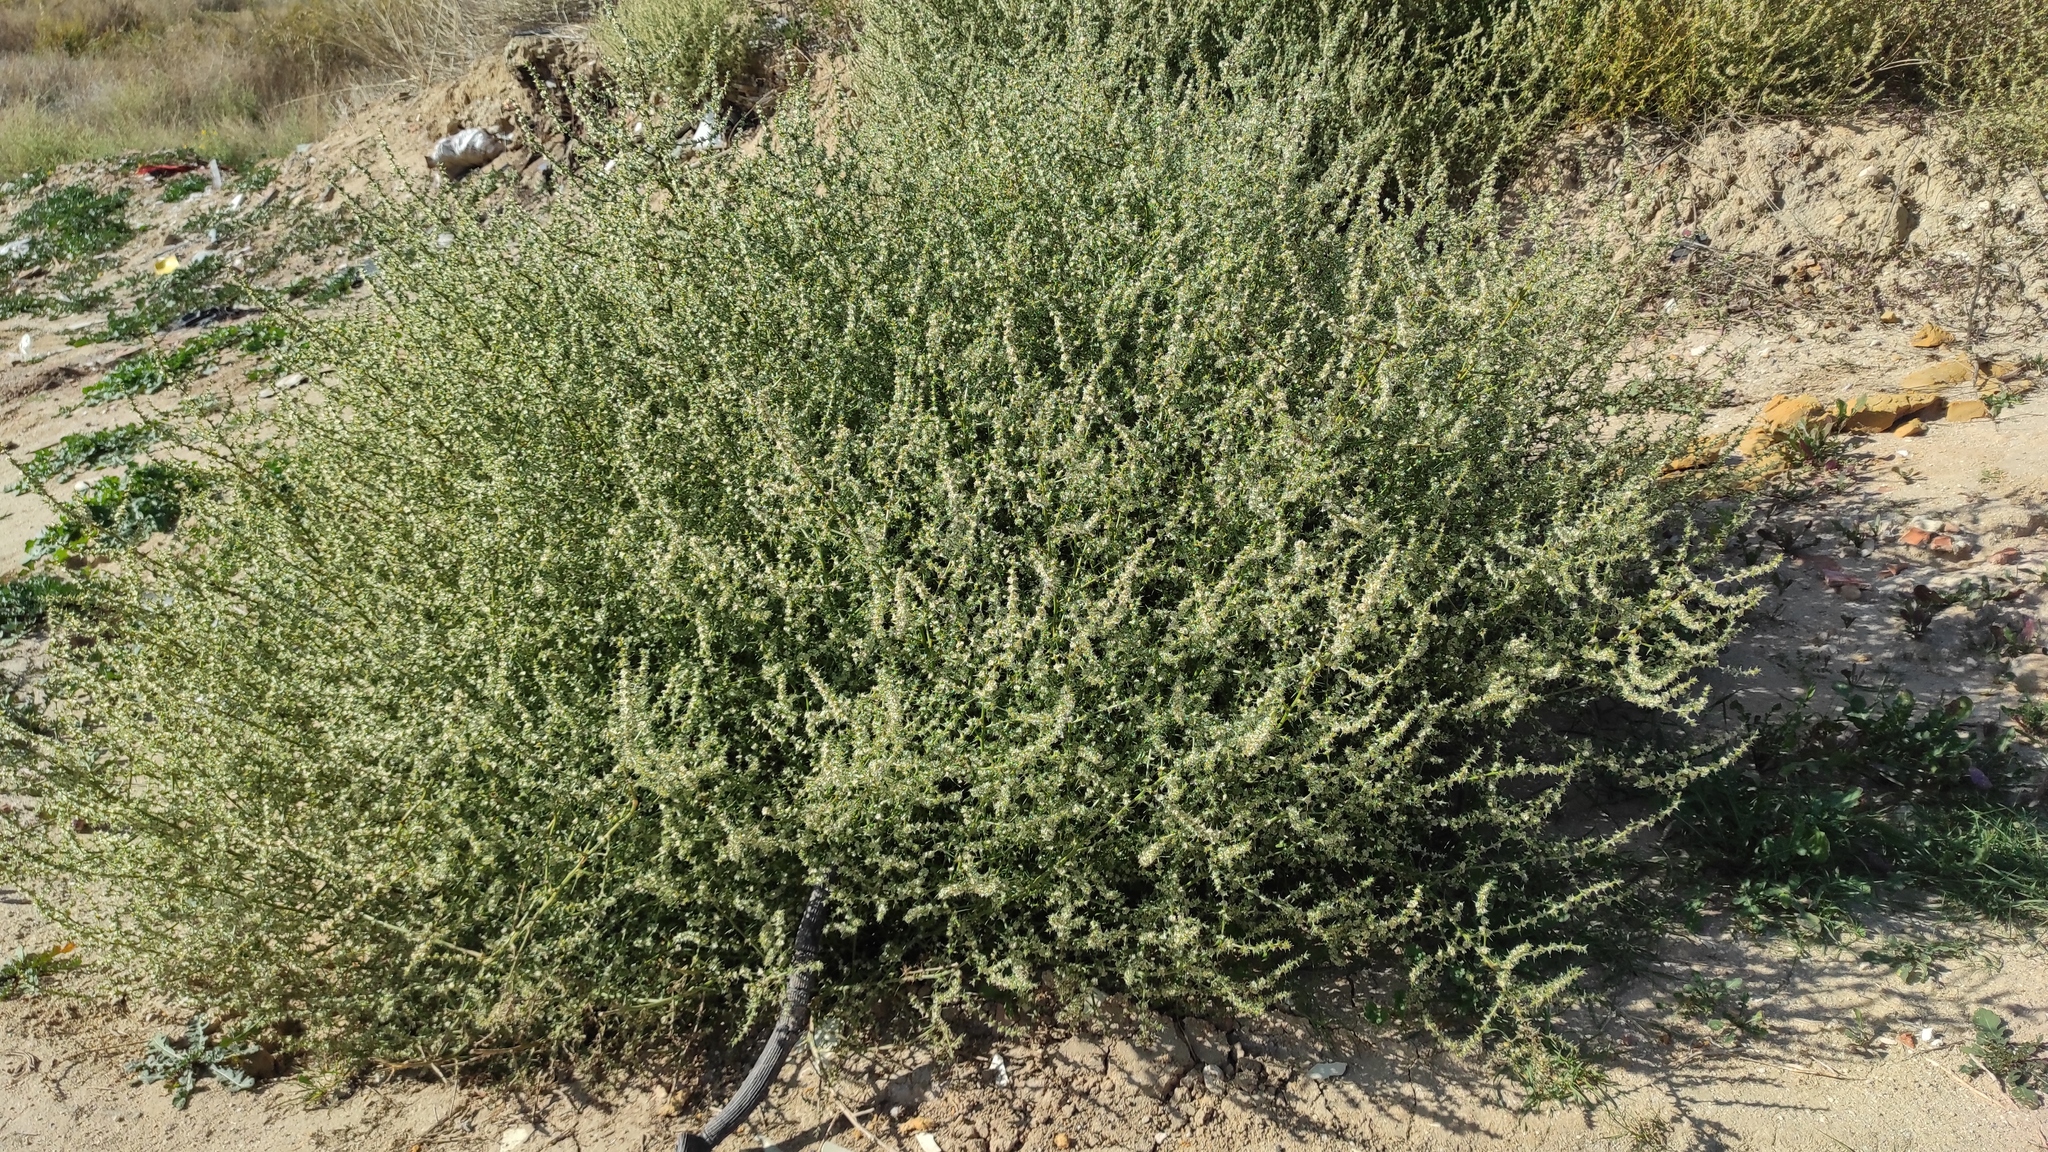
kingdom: Plantae
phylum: Tracheophyta
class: Magnoliopsida
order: Caryophyllales
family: Amaranthaceae
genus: Salsola
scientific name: Salsola kali
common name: Saltwort
